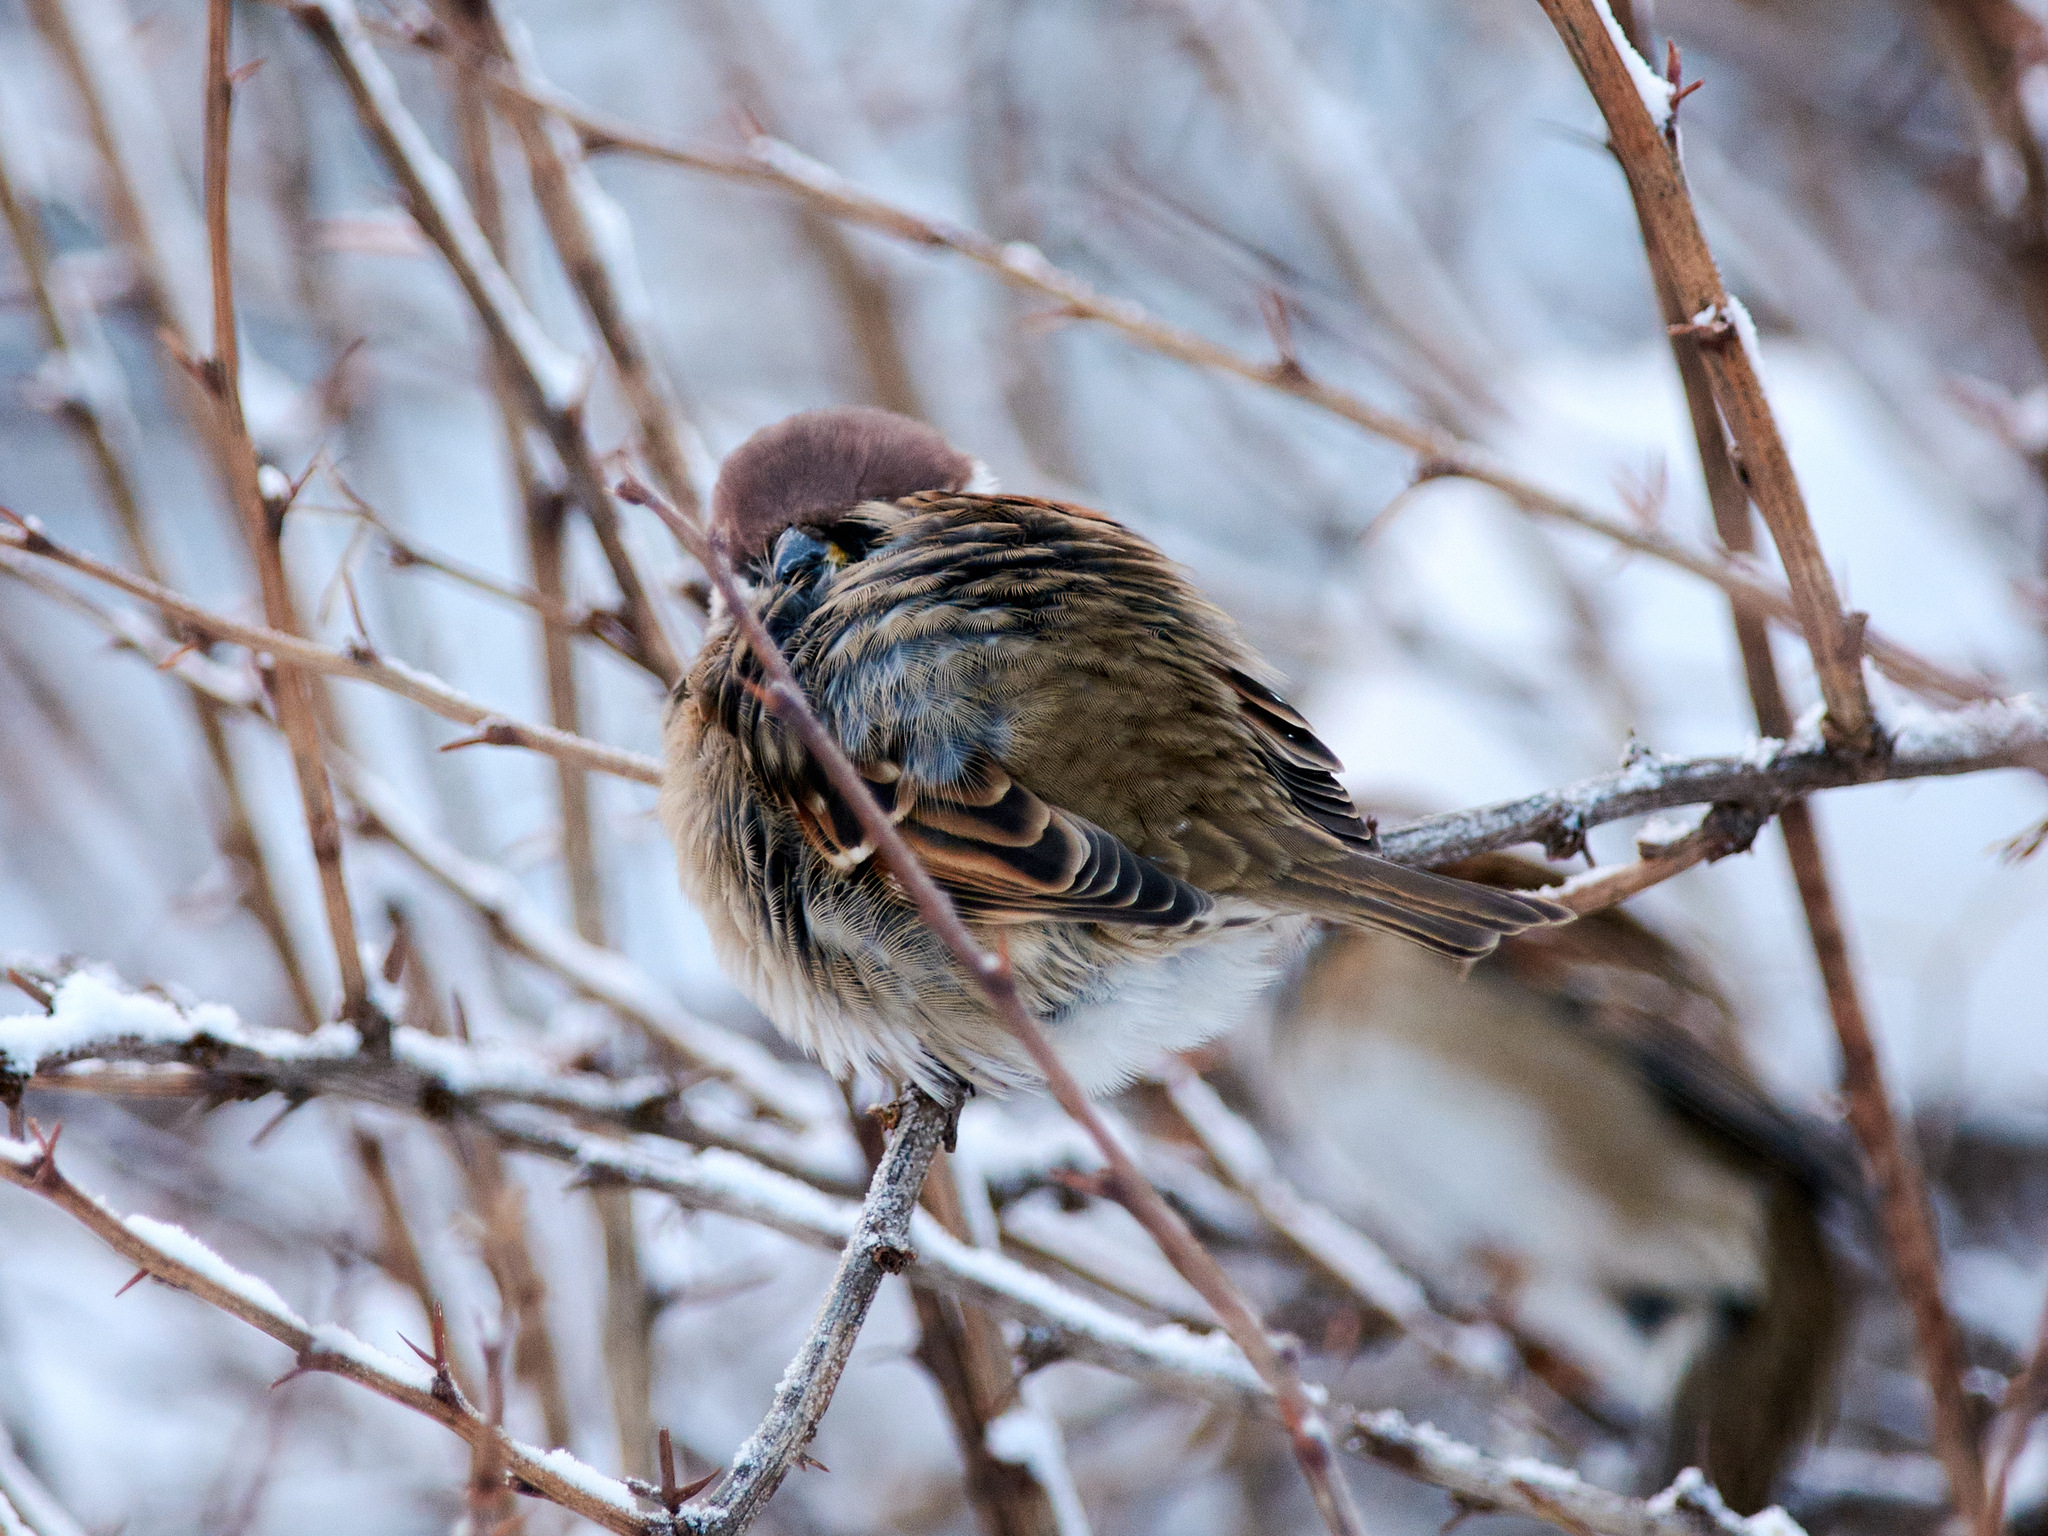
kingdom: Animalia
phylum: Chordata
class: Aves
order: Passeriformes
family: Passeridae
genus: Passer
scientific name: Passer montanus
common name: Eurasian tree sparrow
